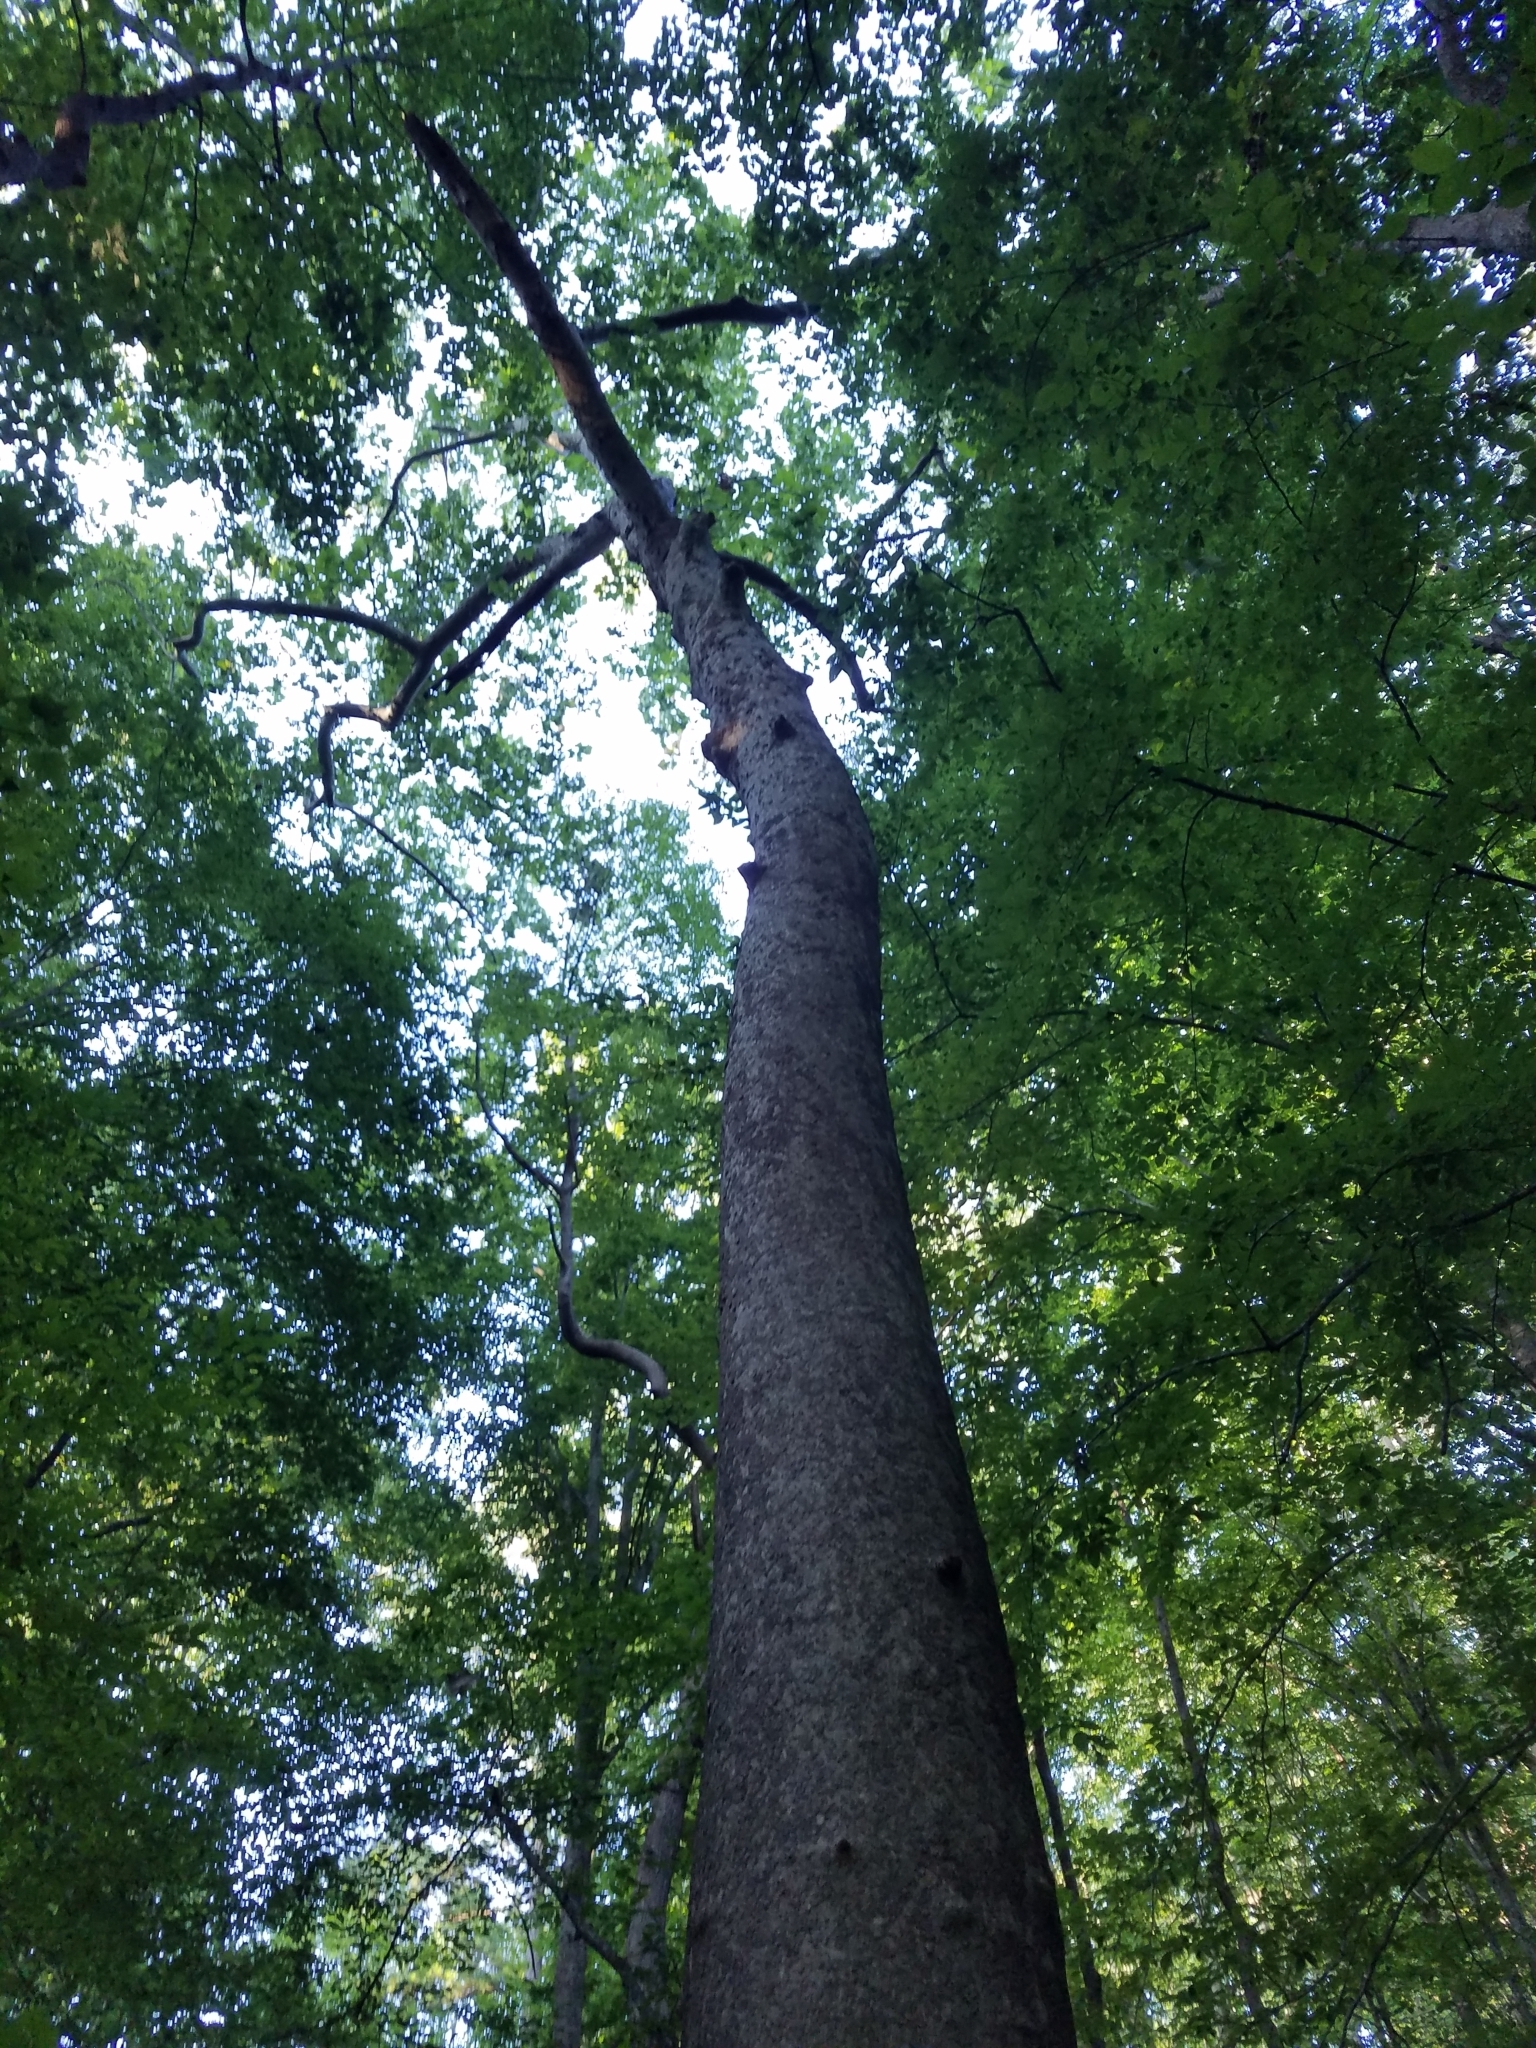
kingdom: Plantae
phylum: Tracheophyta
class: Magnoliopsida
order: Proteales
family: Platanaceae
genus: Platanus
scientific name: Platanus occidentalis
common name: American sycamore
